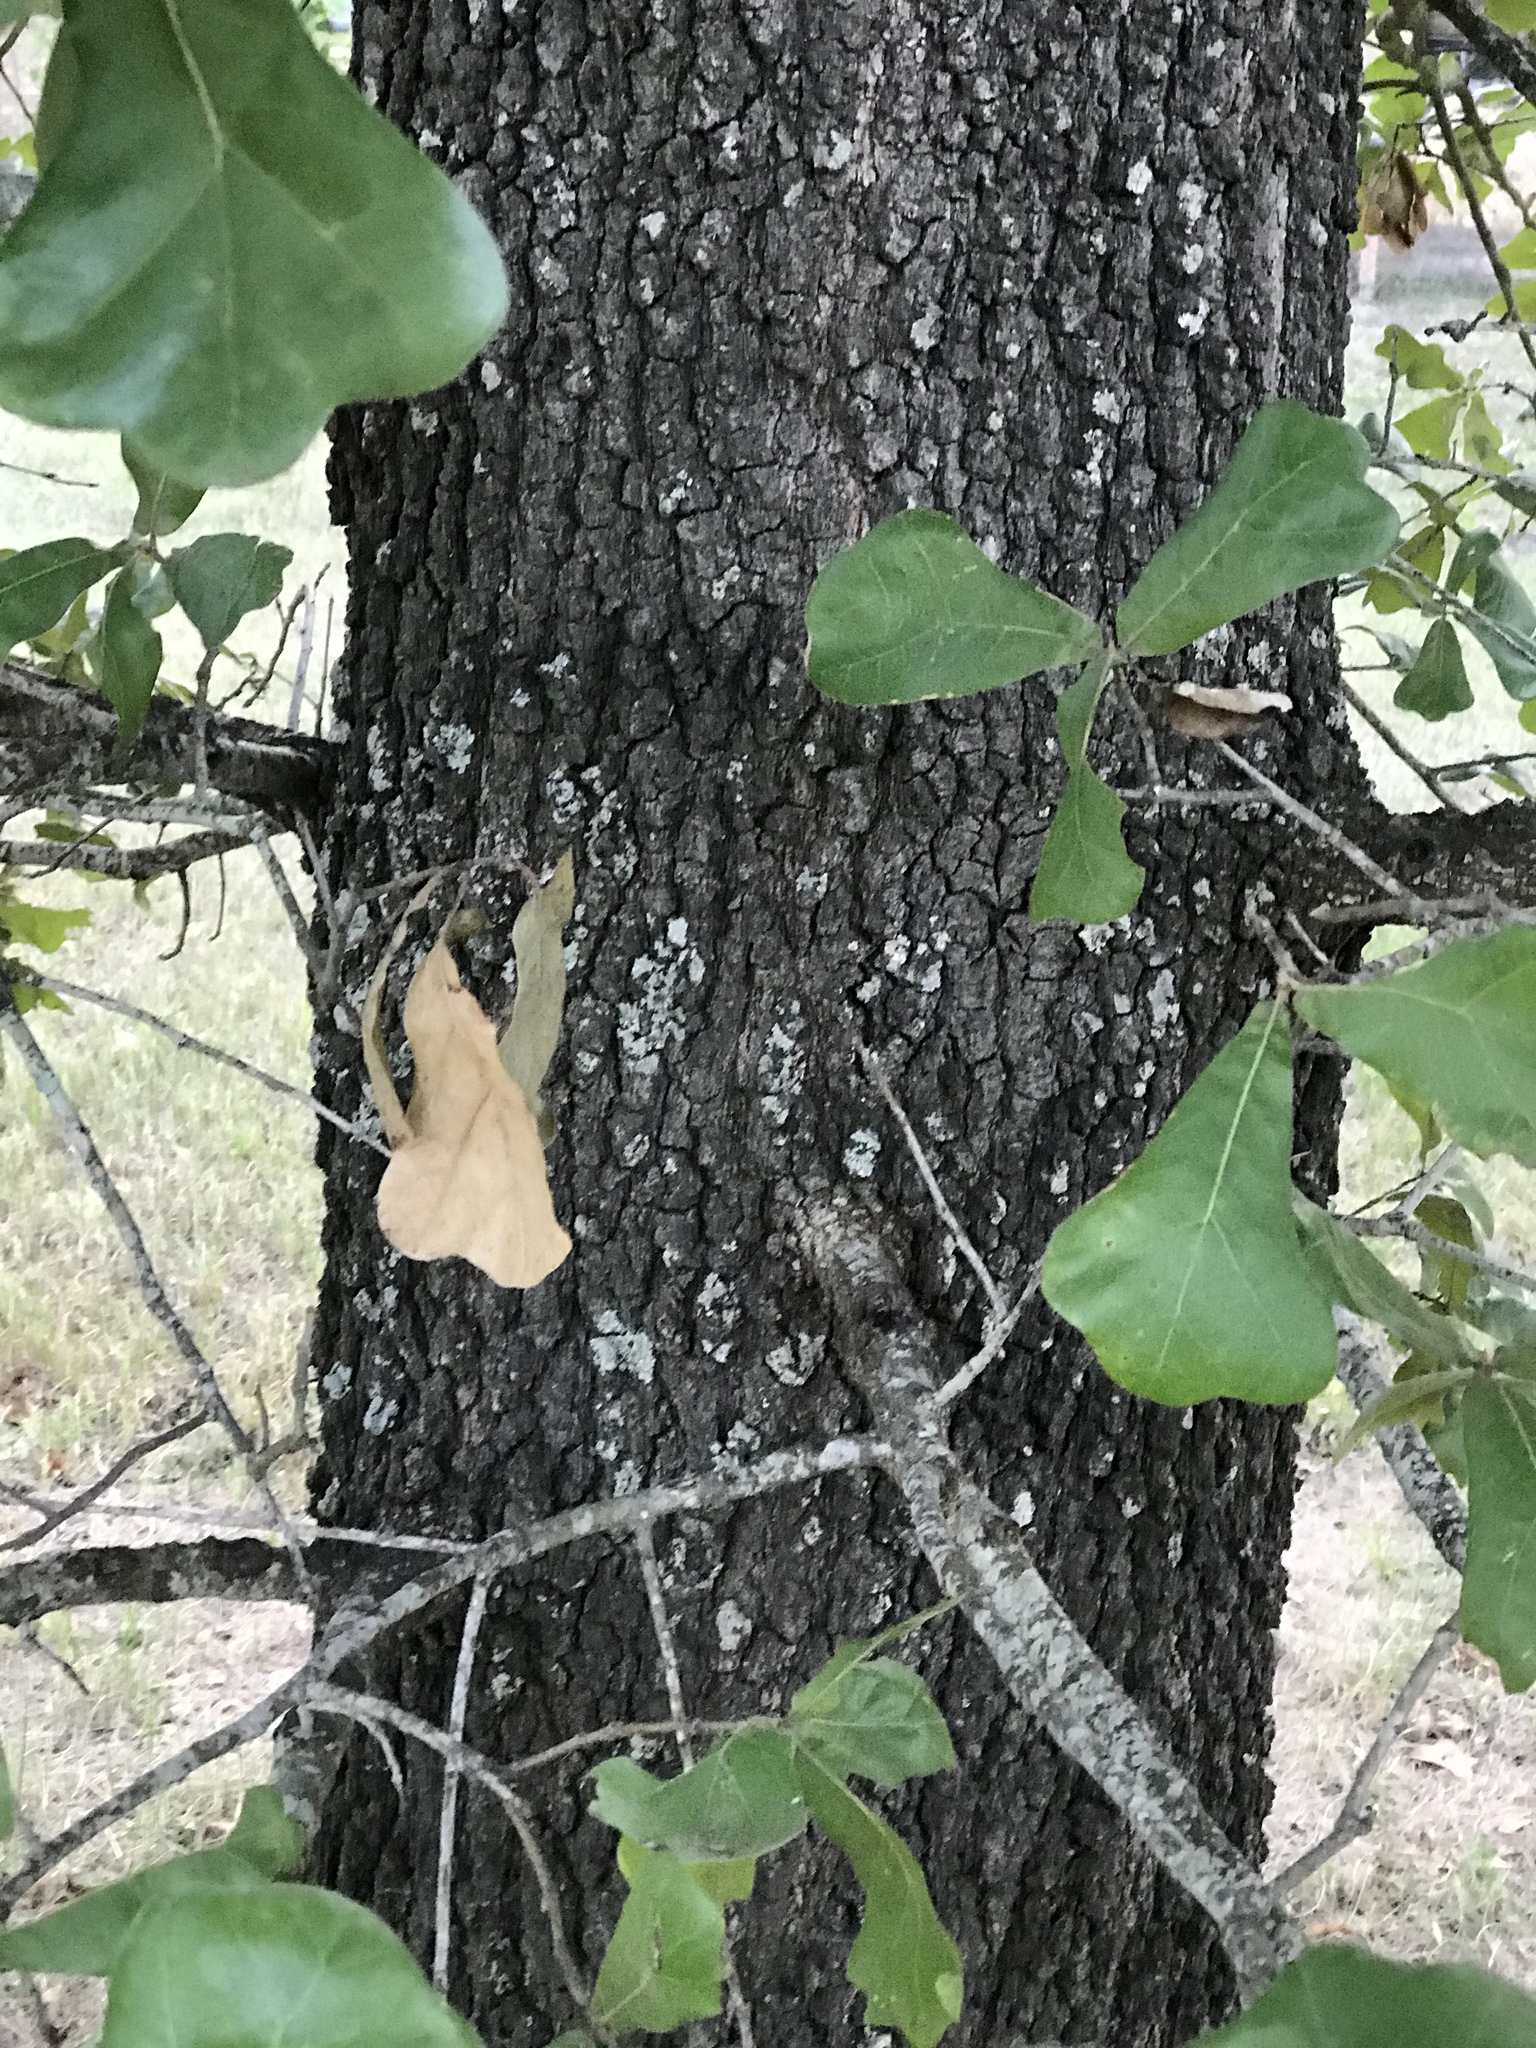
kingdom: Plantae
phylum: Tracheophyta
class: Magnoliopsida
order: Fagales
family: Fagaceae
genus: Quercus
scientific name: Quercus marilandica
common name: Blackjack oak
